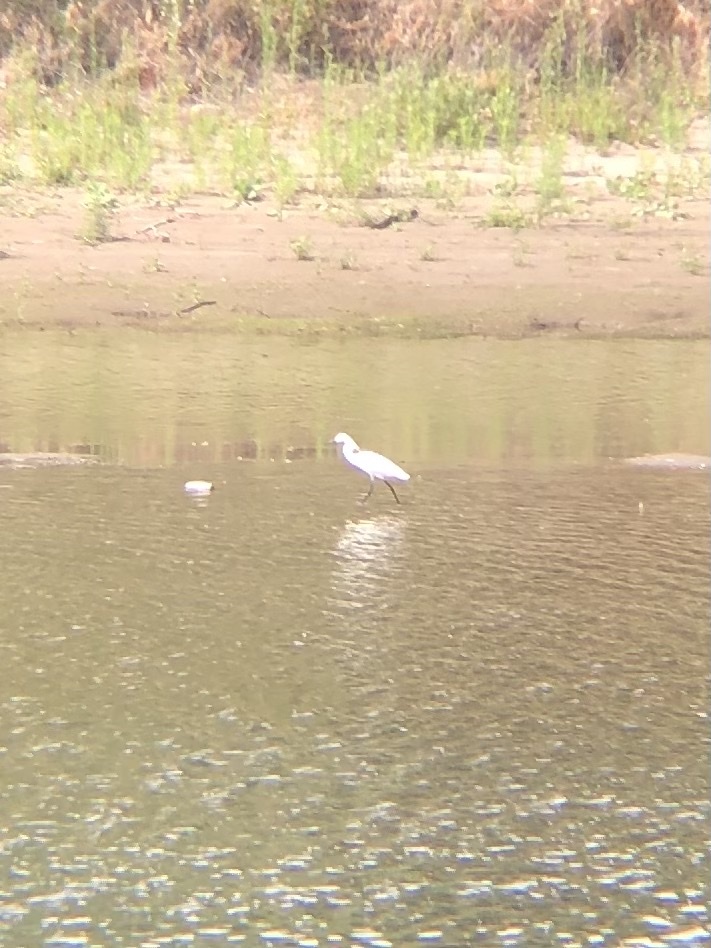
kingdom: Animalia
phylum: Chordata
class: Aves
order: Pelecaniformes
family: Ardeidae
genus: Egretta
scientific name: Egretta thula
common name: Snowy egret
